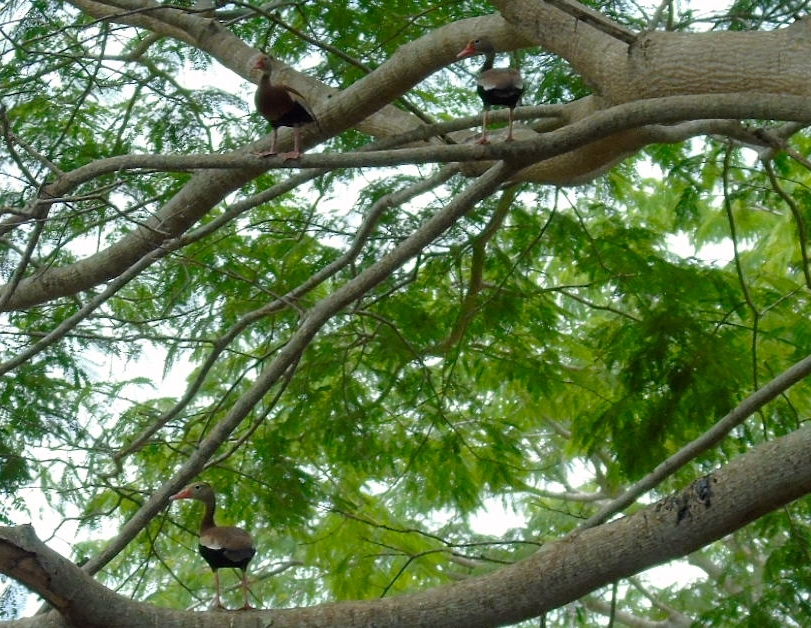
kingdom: Animalia
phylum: Chordata
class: Aves
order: Anseriformes
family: Anatidae
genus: Dendrocygna
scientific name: Dendrocygna autumnalis
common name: Black-bellied whistling duck
